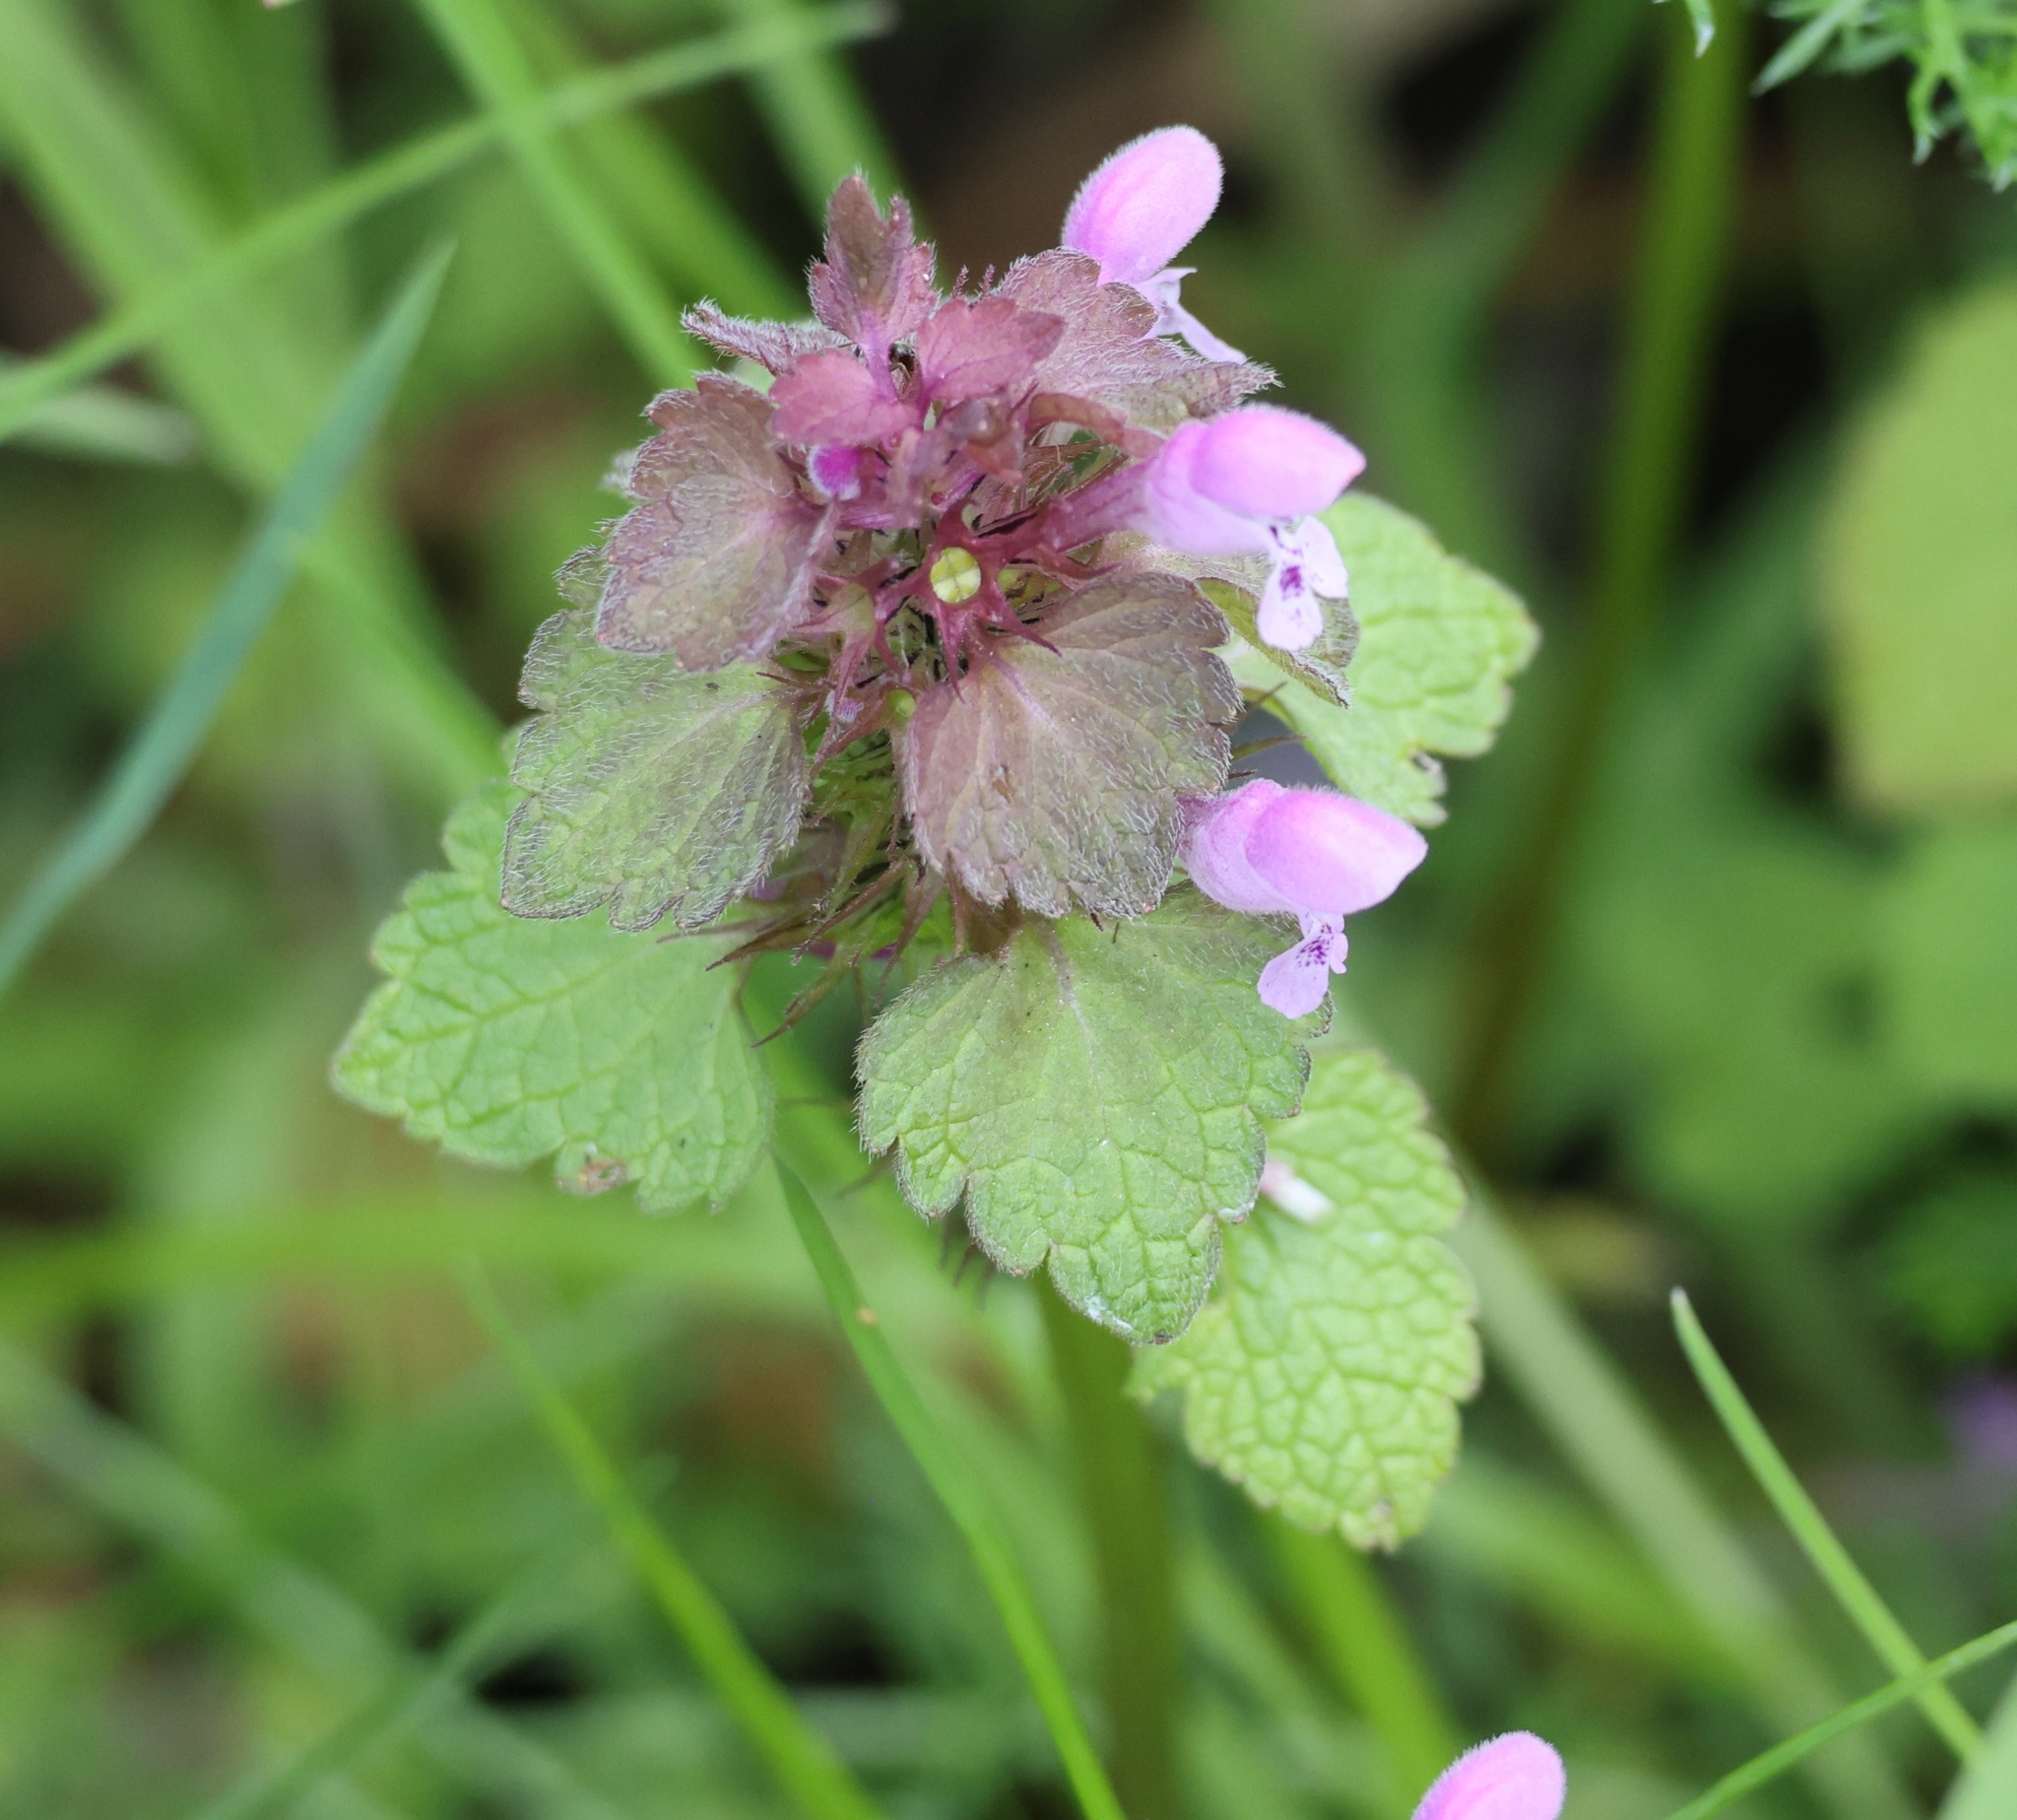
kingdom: Plantae
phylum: Tracheophyta
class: Magnoliopsida
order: Lamiales
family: Lamiaceae
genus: Lamium
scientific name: Lamium purpureum
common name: Red dead-nettle
